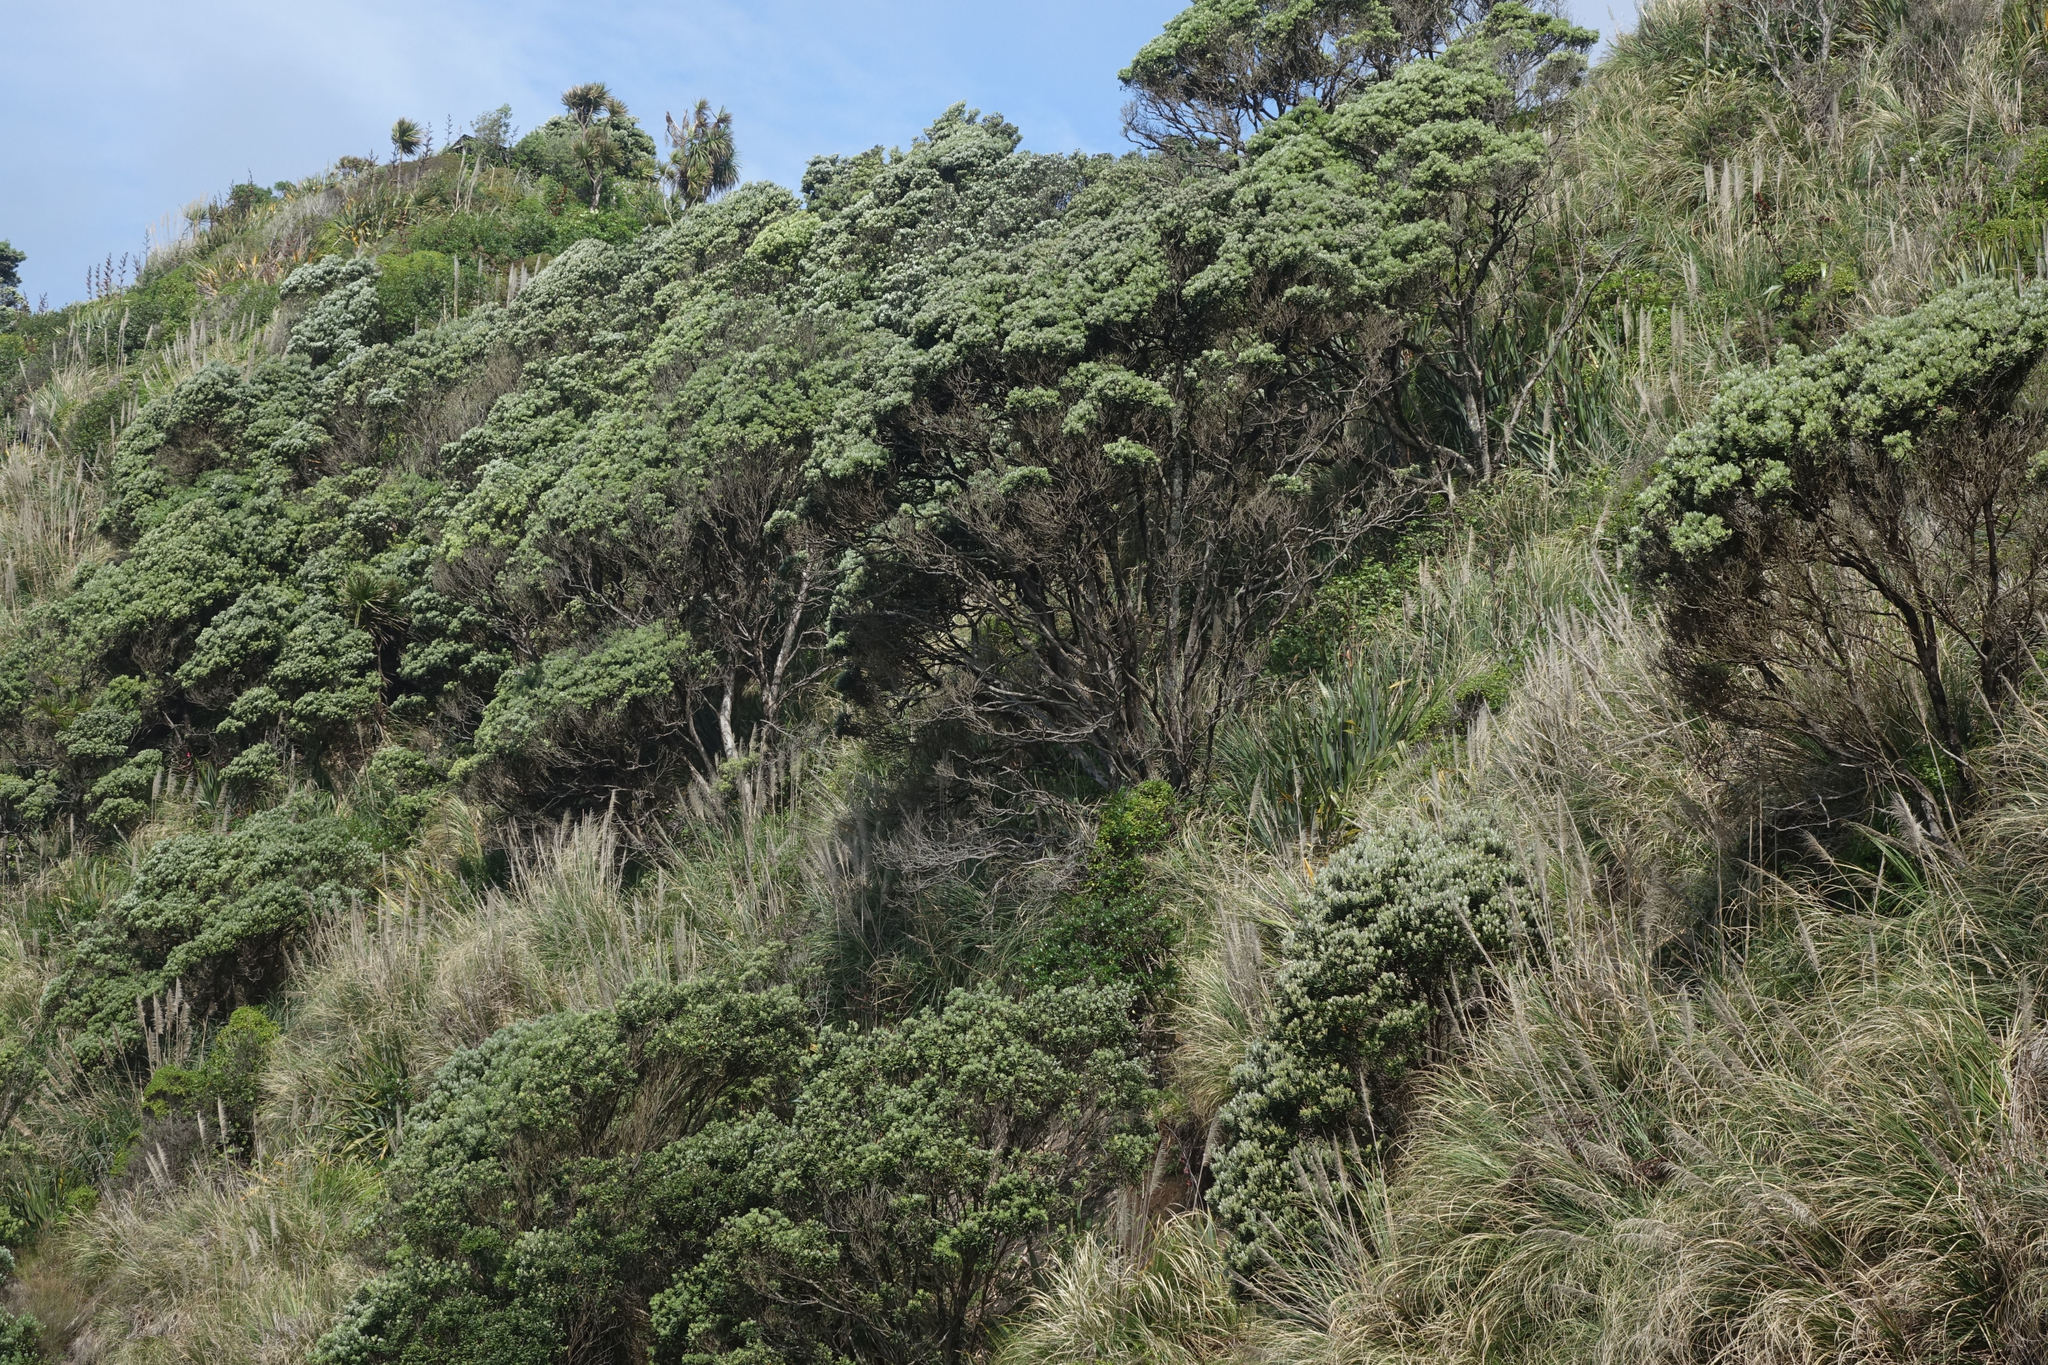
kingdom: Plantae
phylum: Tracheophyta
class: Magnoliopsida
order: Myrtales
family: Myrtaceae
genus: Metrosideros
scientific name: Metrosideros excelsa
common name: New zealand christmastree
